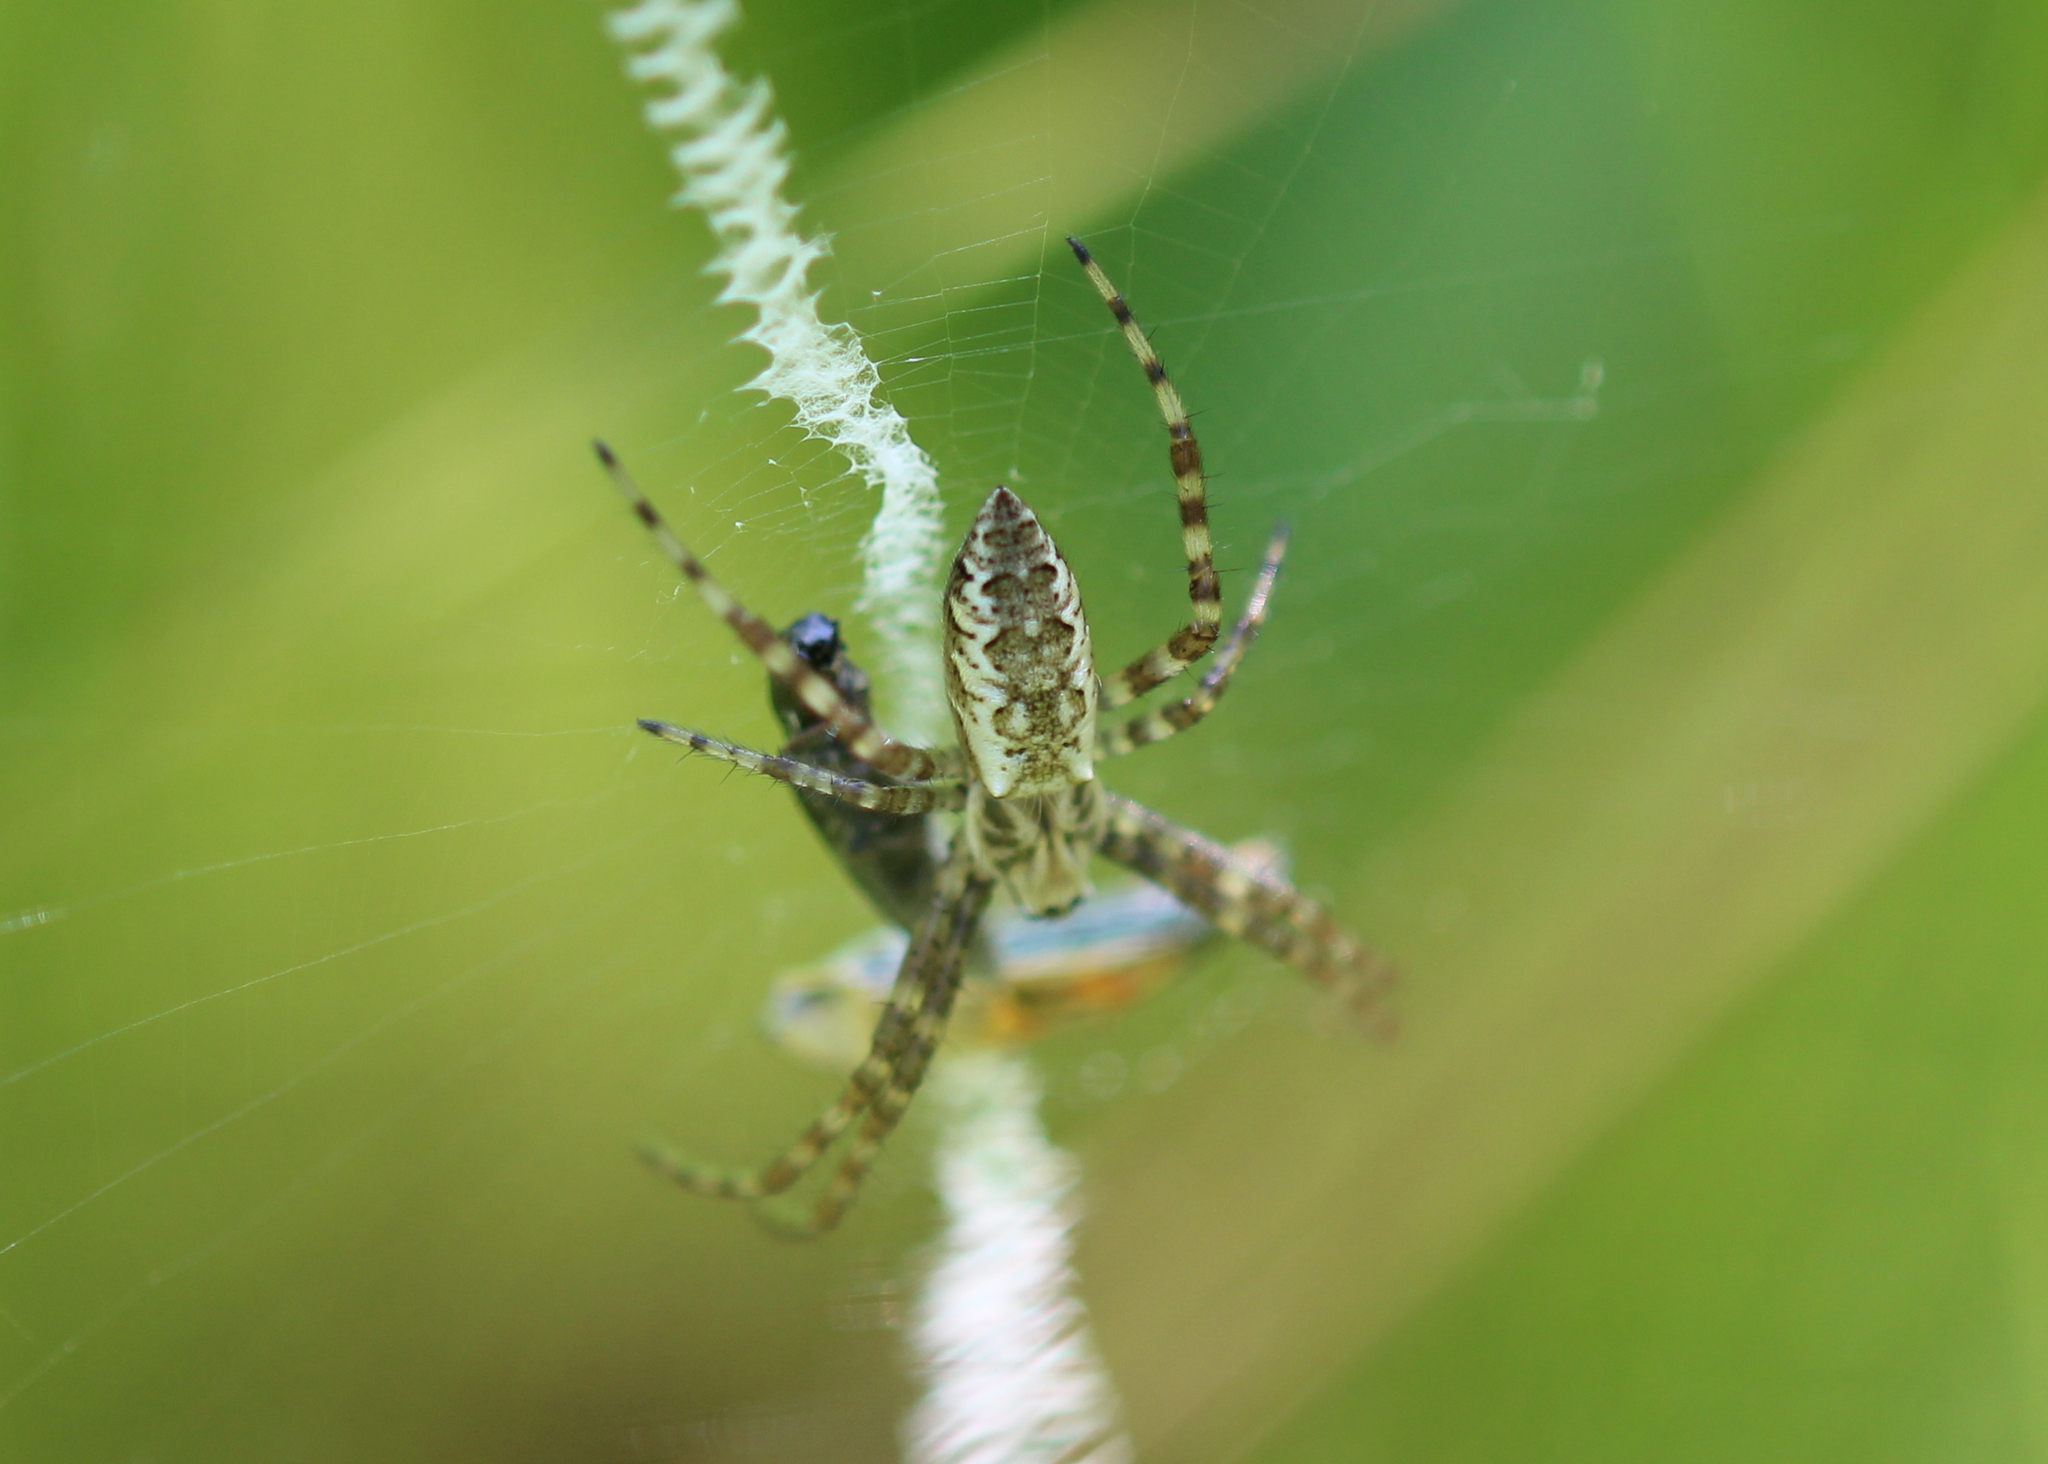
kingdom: Animalia
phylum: Arthropoda
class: Arachnida
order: Araneae
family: Araneidae
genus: Argiope
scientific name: Argiope aurantia
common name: Orb weavers
